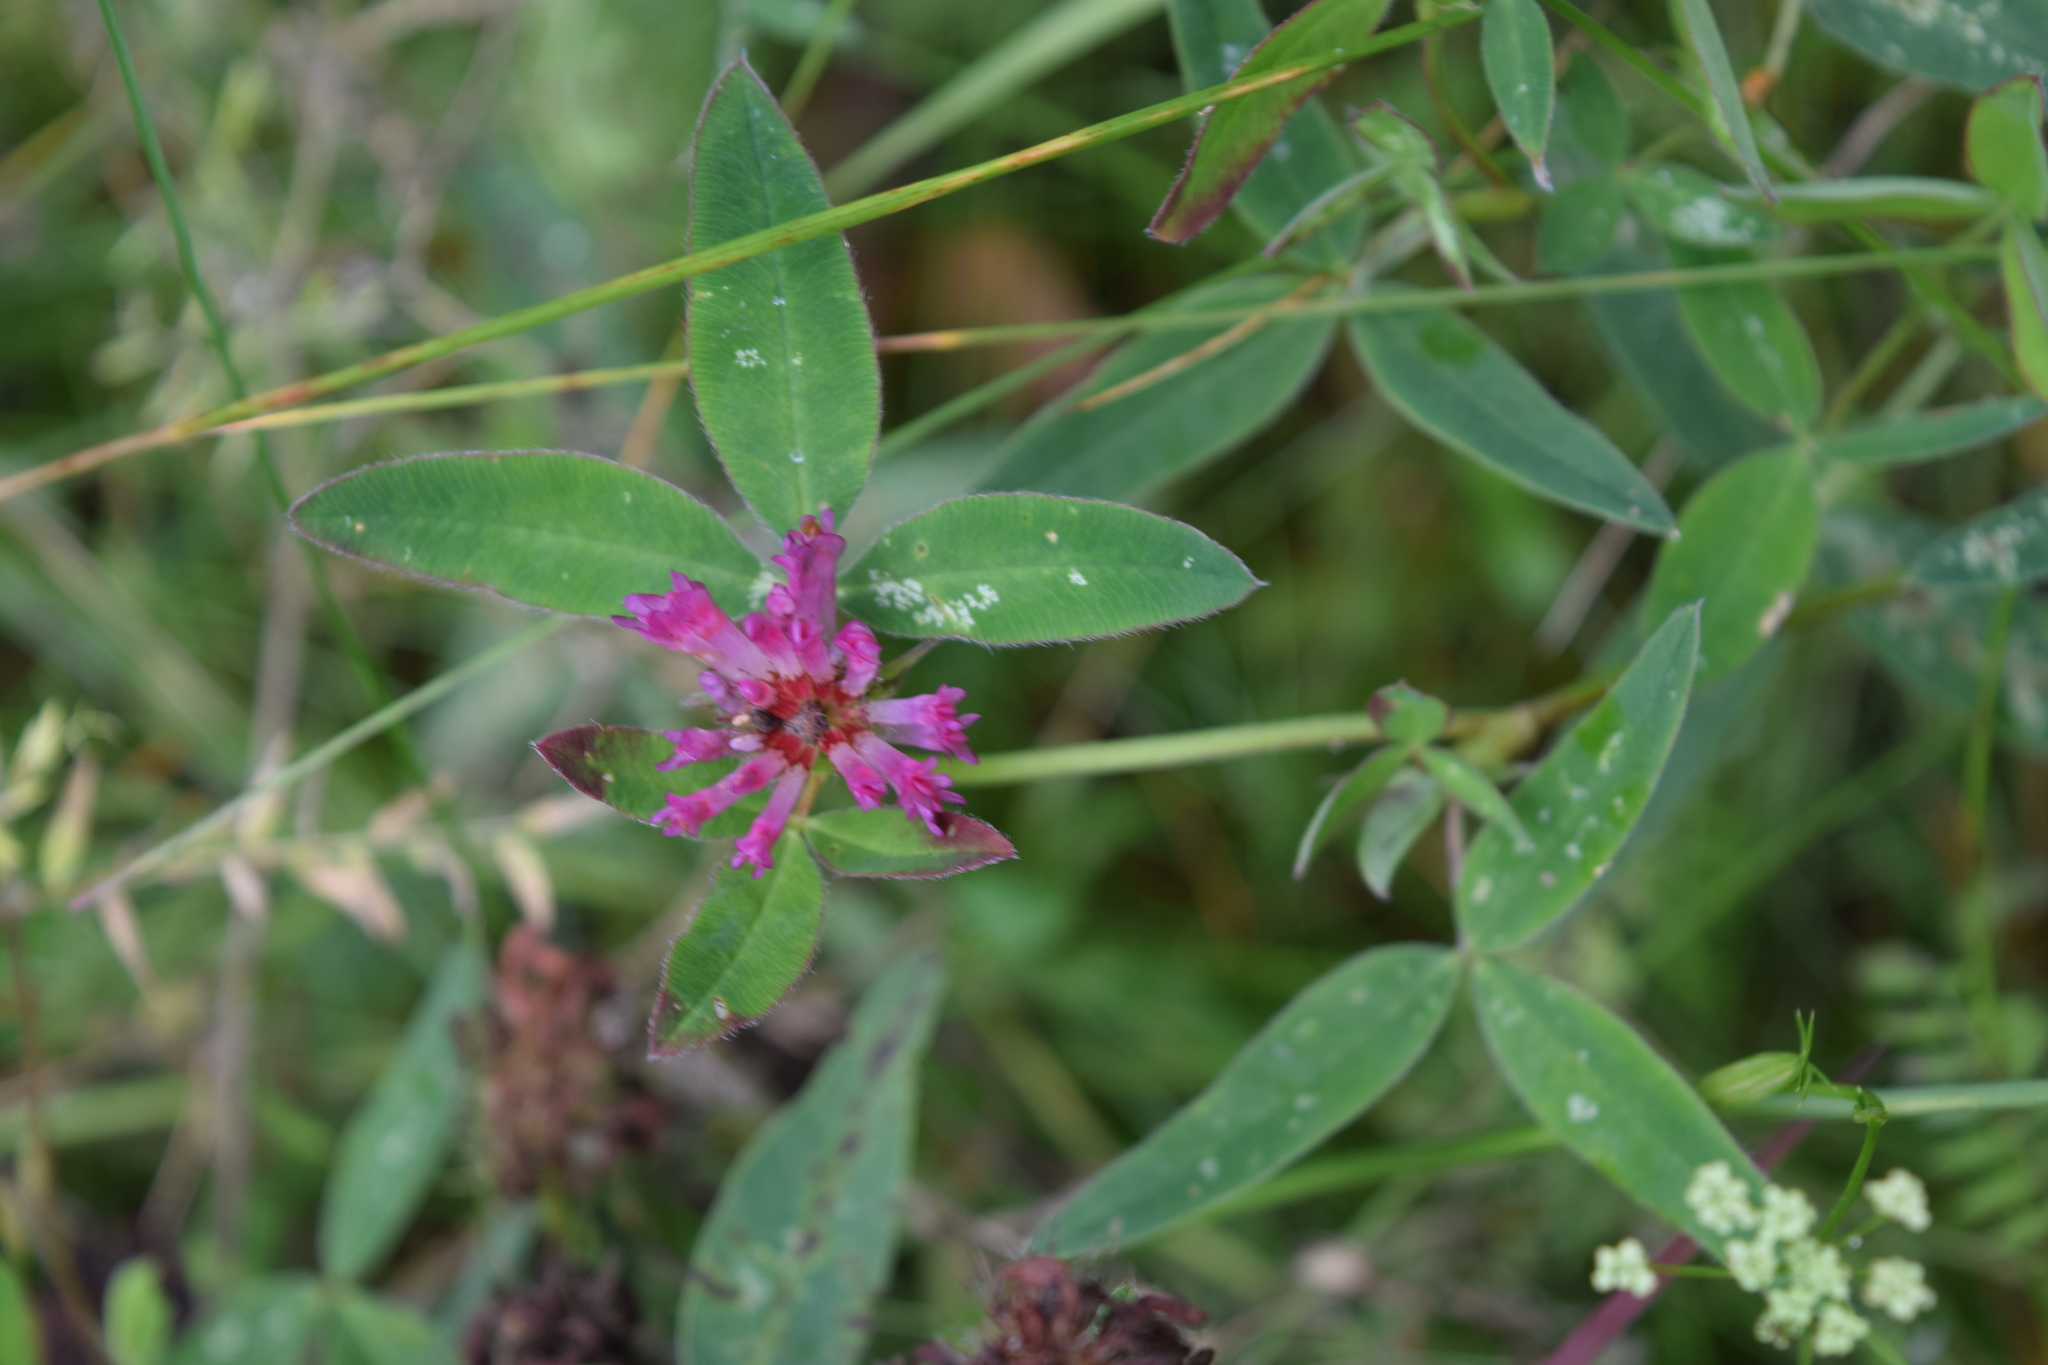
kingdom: Plantae
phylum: Tracheophyta
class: Magnoliopsida
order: Fabales
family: Fabaceae
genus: Trifolium
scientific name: Trifolium medium
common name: Zigzag clover
